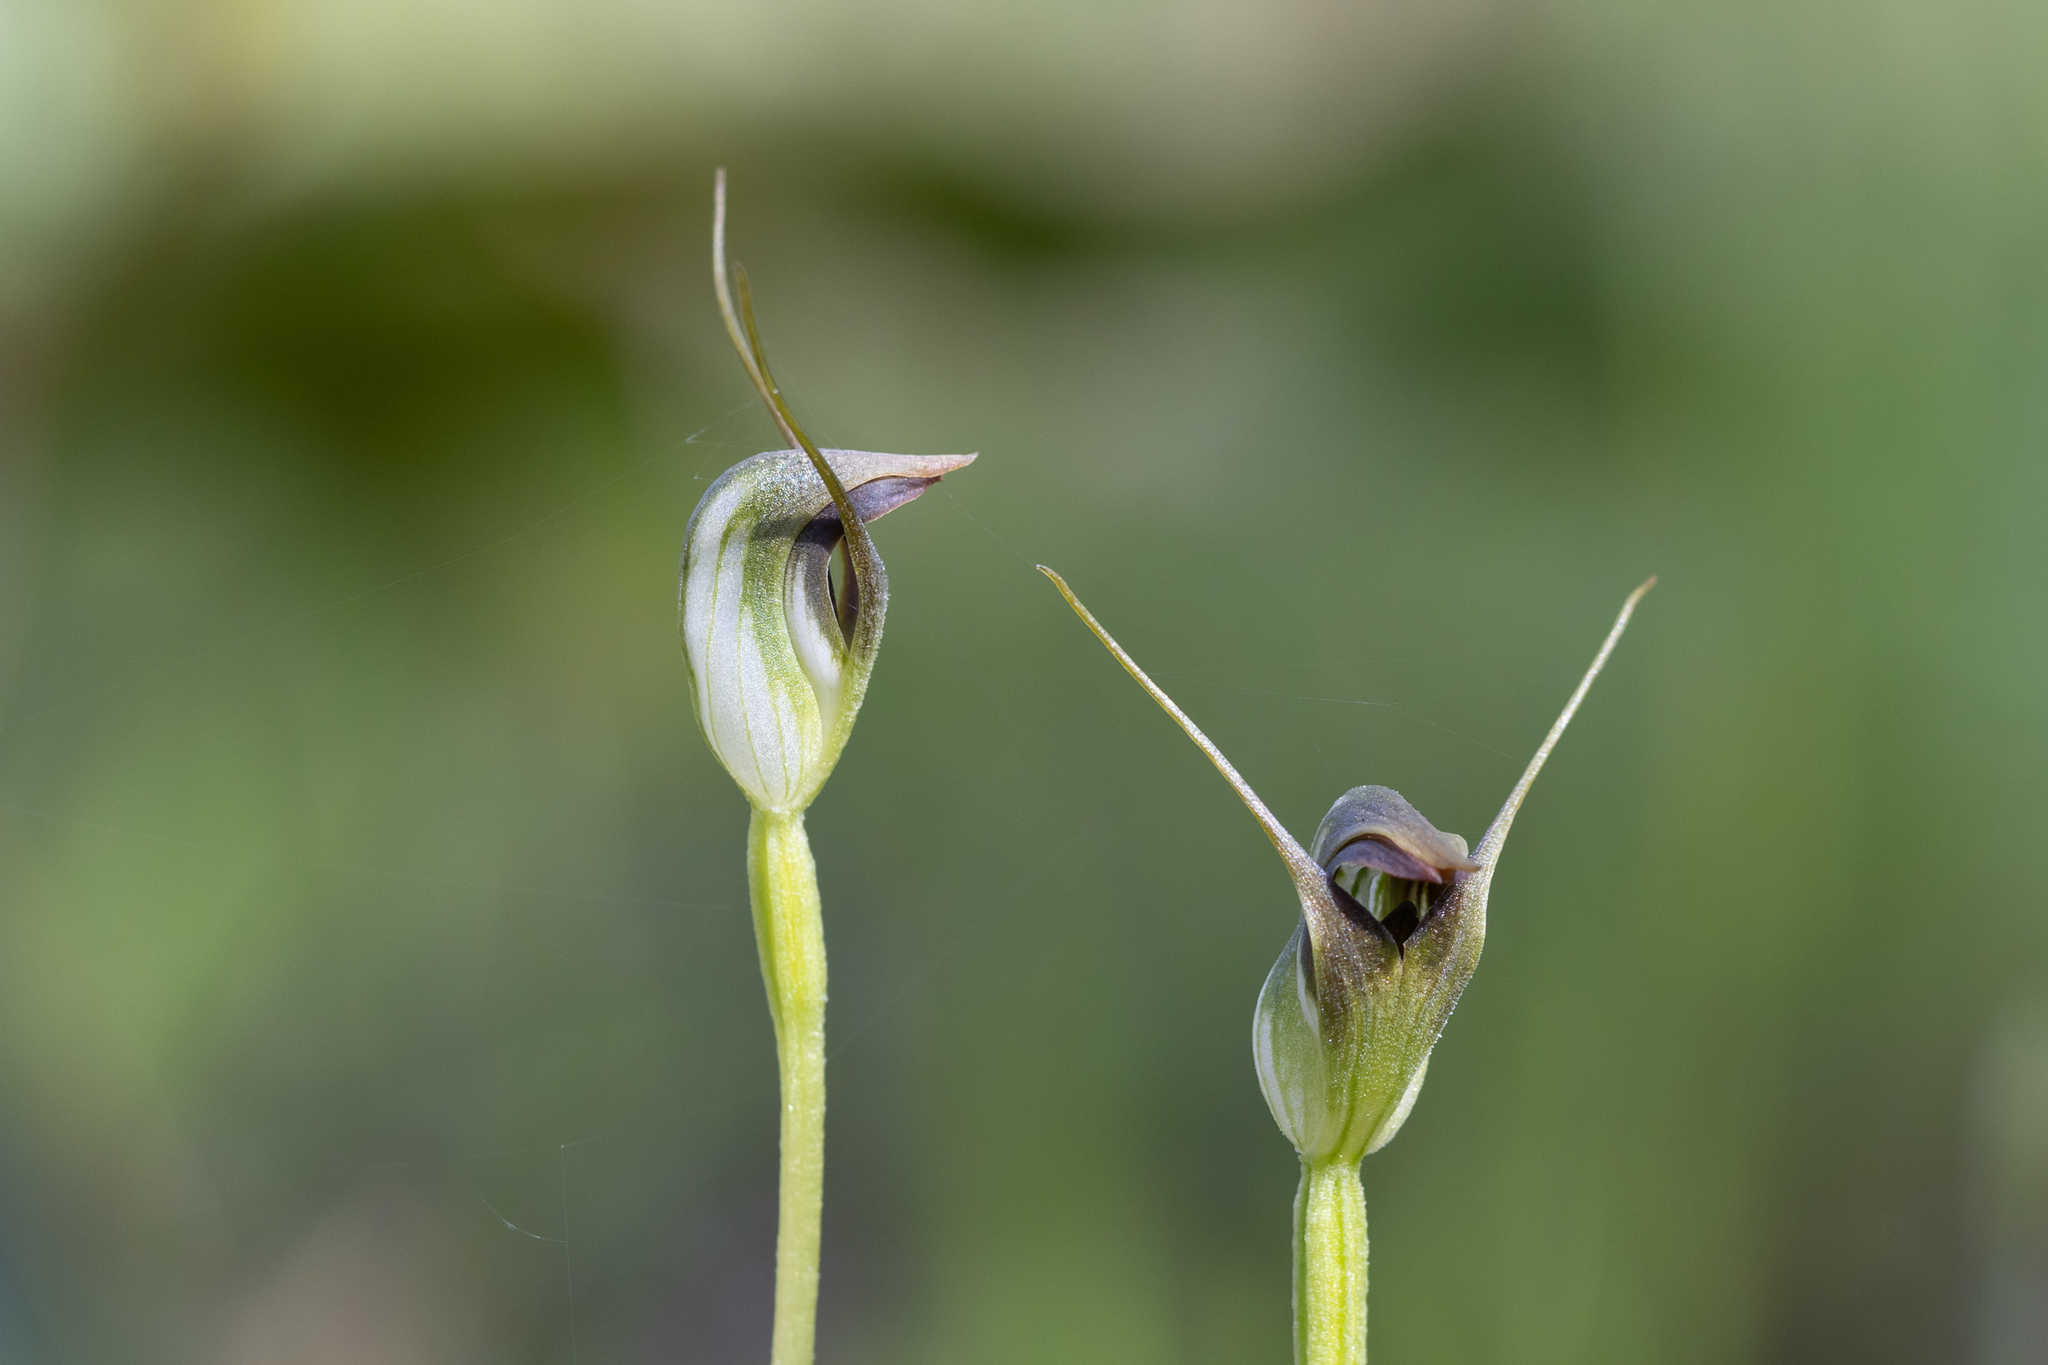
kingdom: Plantae
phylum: Tracheophyta
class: Liliopsida
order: Asparagales
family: Orchidaceae
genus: Pterostylis
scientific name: Pterostylis pedunculata
